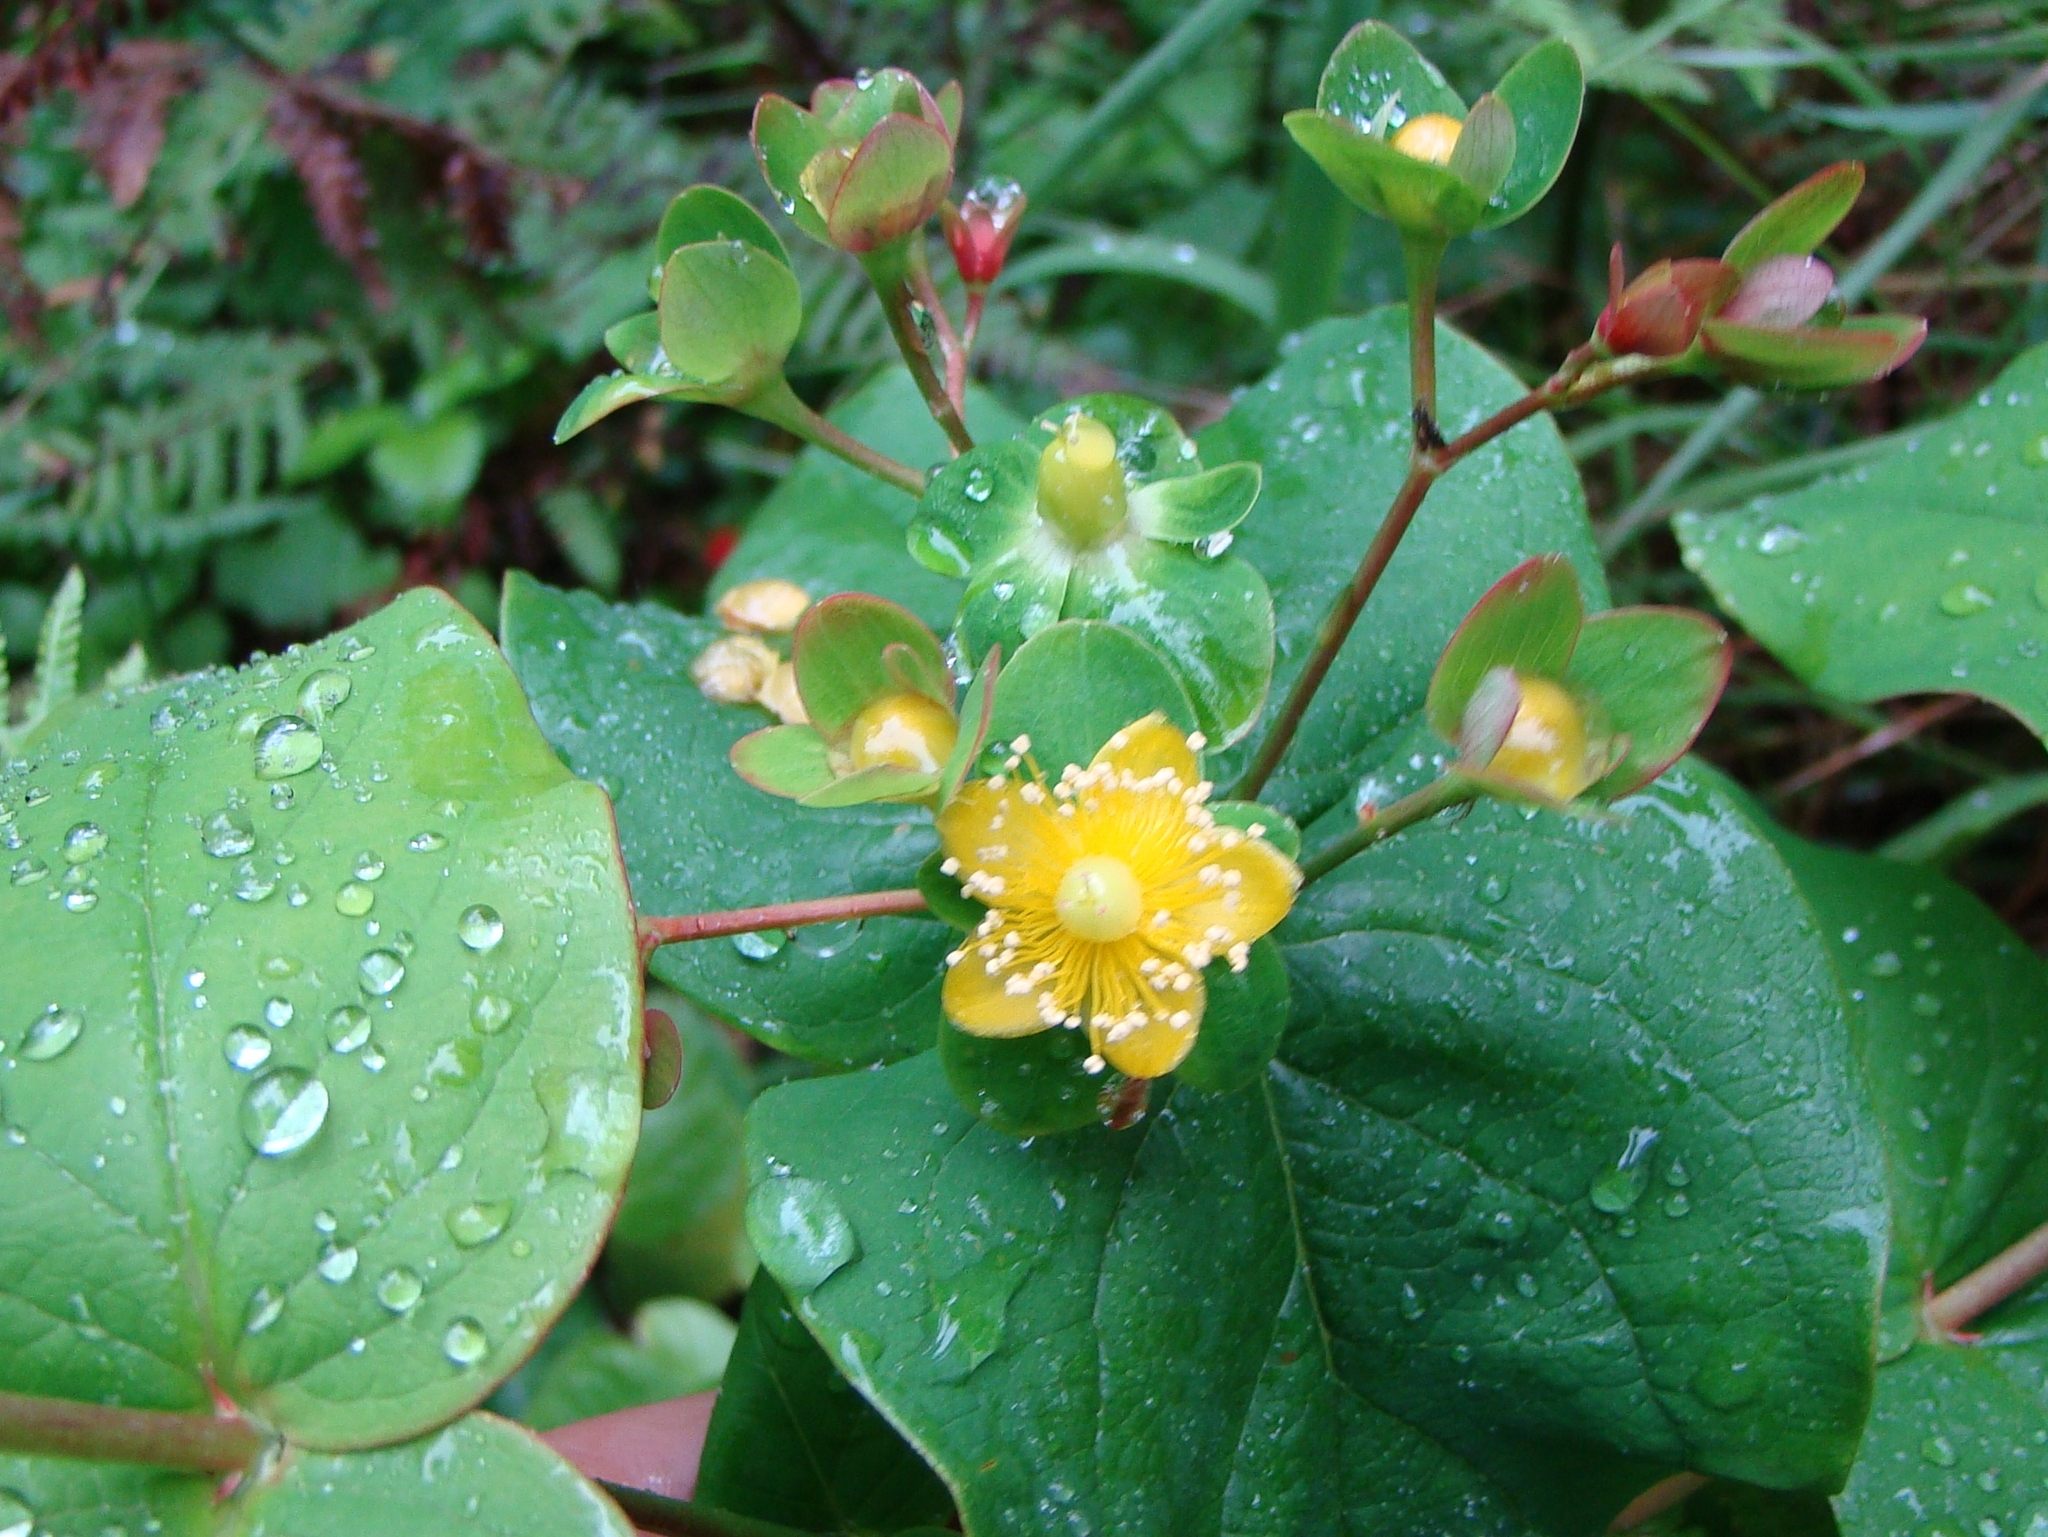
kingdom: Plantae
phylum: Tracheophyta
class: Magnoliopsida
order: Malpighiales
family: Hypericaceae
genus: Hypericum
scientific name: Hypericum androsaemum
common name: Sweet-amber
